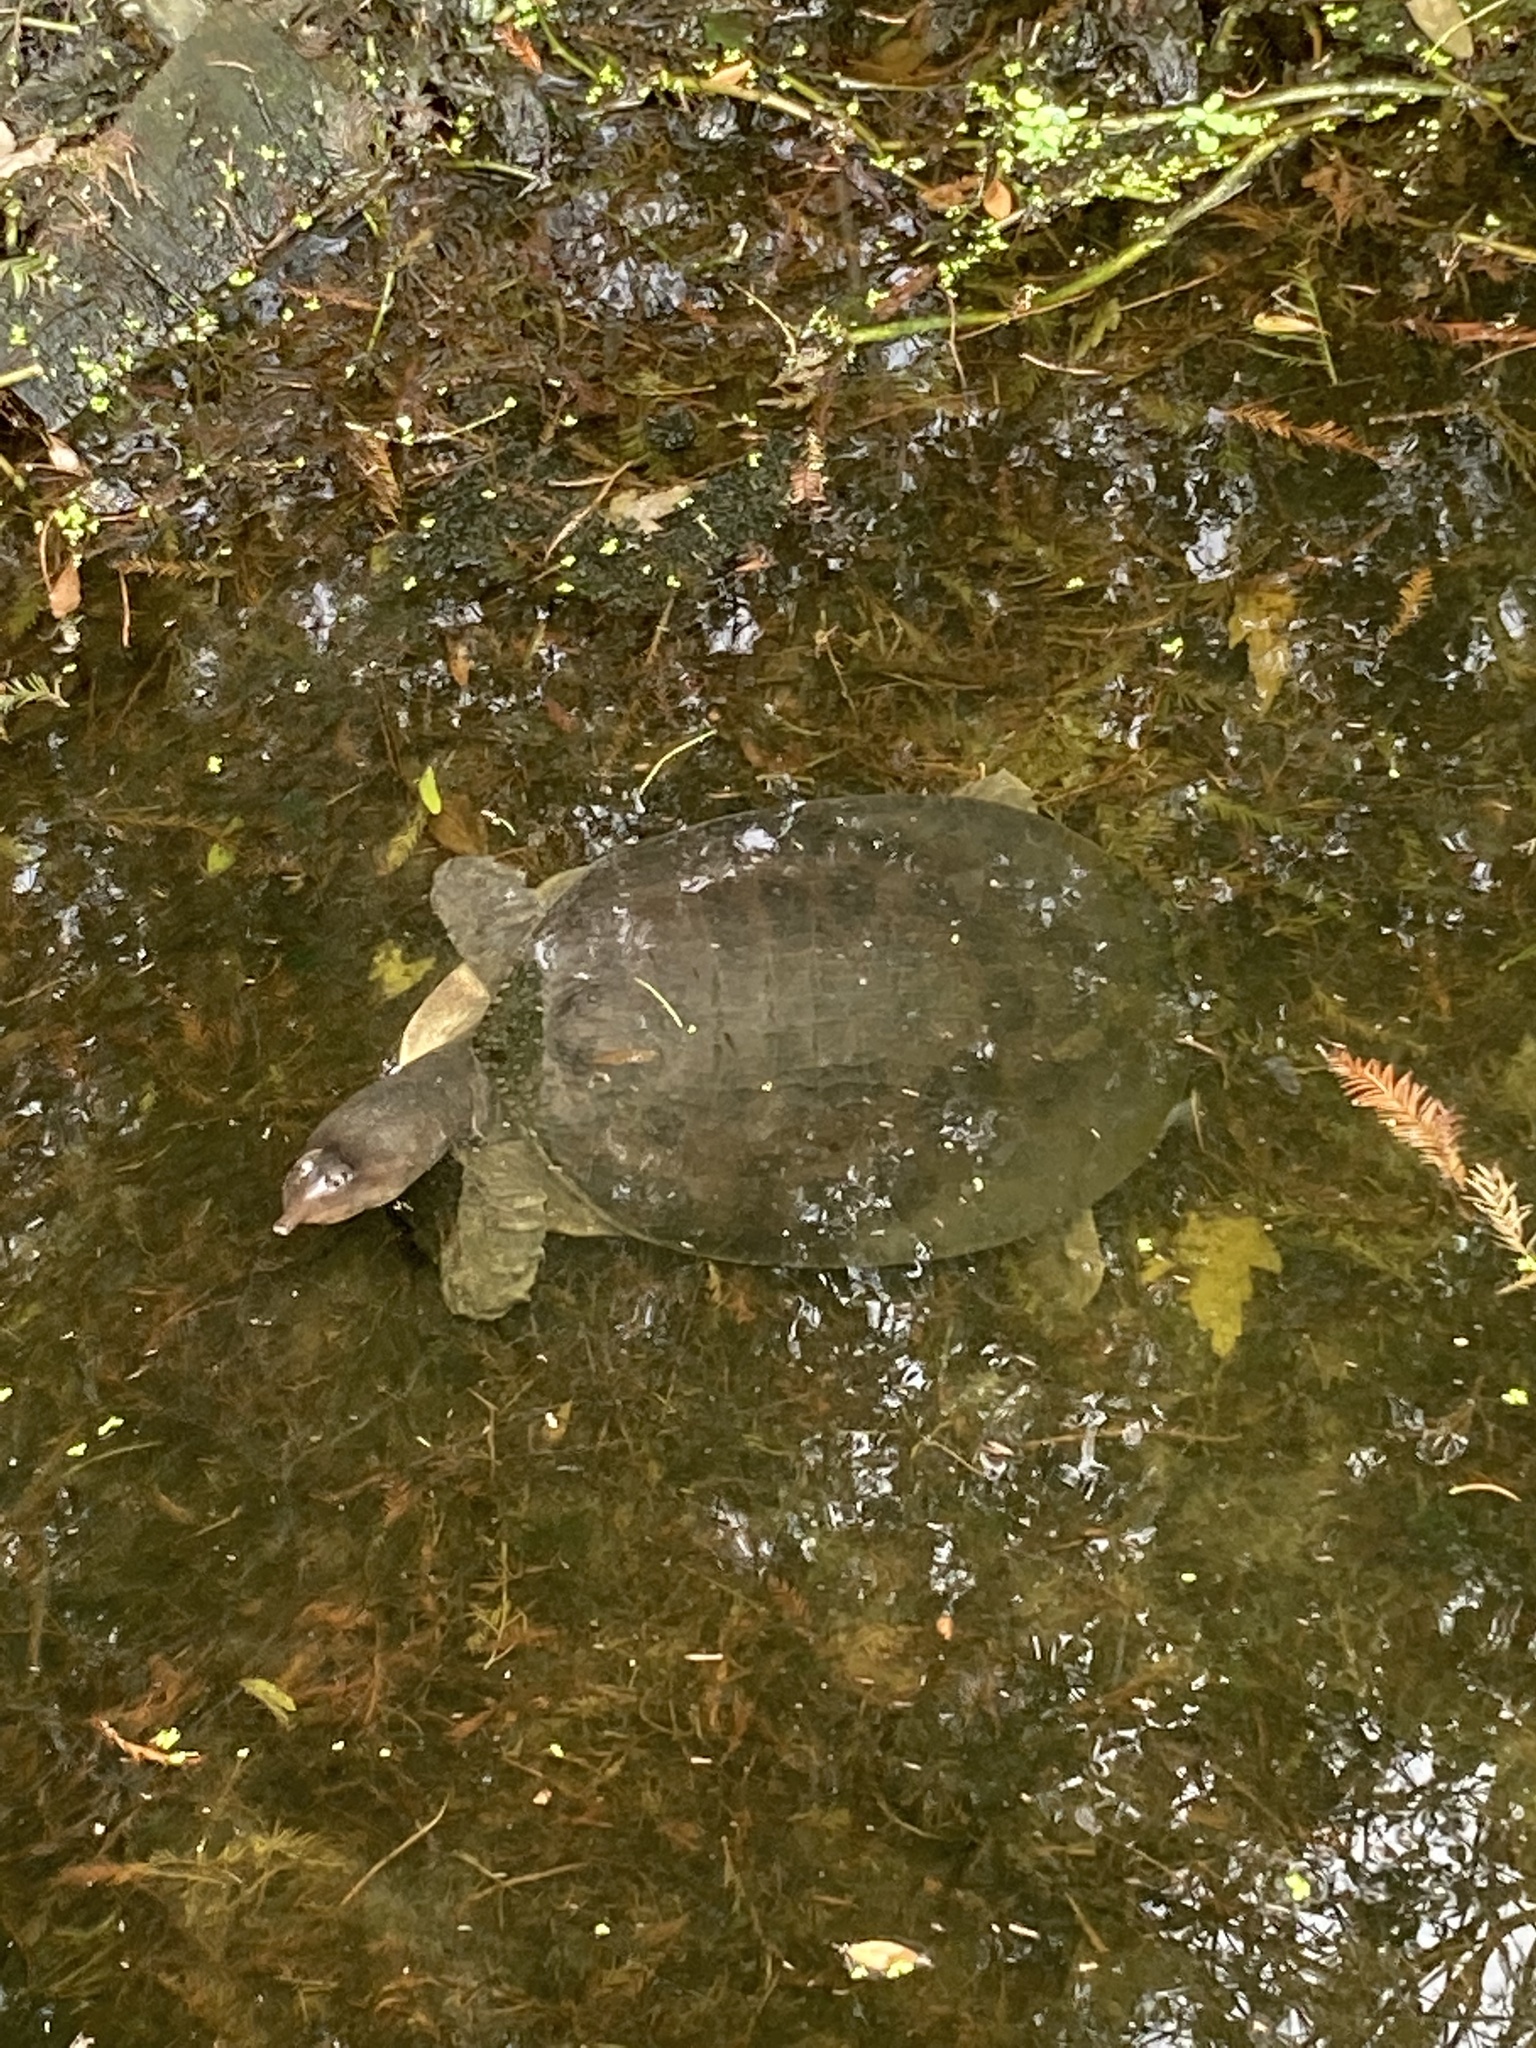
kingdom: Animalia
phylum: Chordata
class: Testudines
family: Trionychidae
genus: Apalone
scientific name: Apalone ferox
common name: Florida softshell turtle
